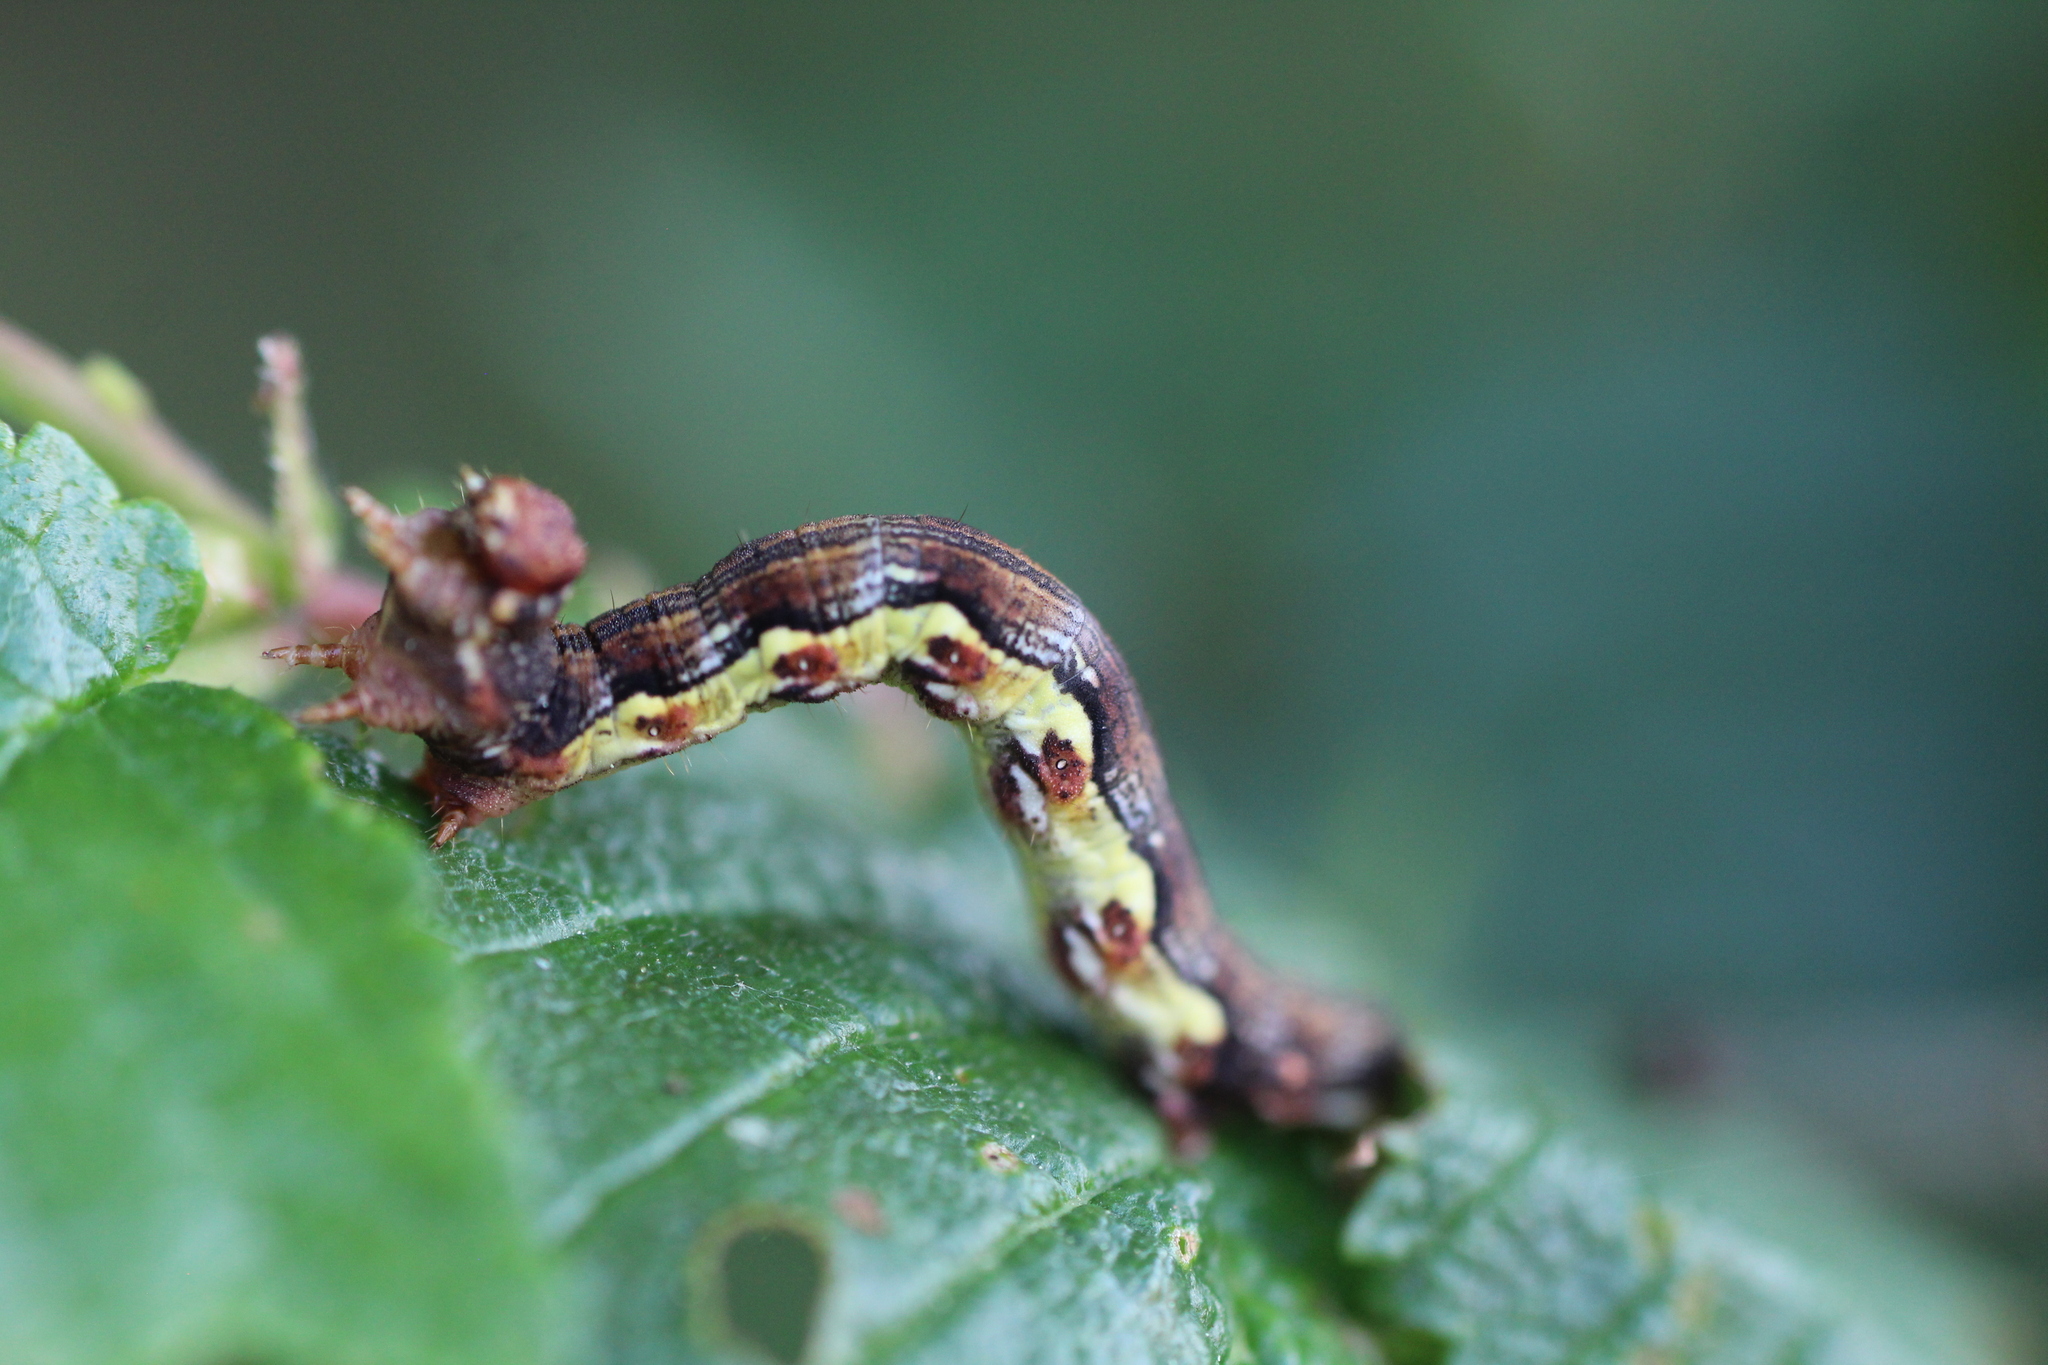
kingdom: Animalia
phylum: Arthropoda
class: Insecta
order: Lepidoptera
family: Geometridae
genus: Erannis
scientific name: Erannis defoliaria
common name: Mottled umber
